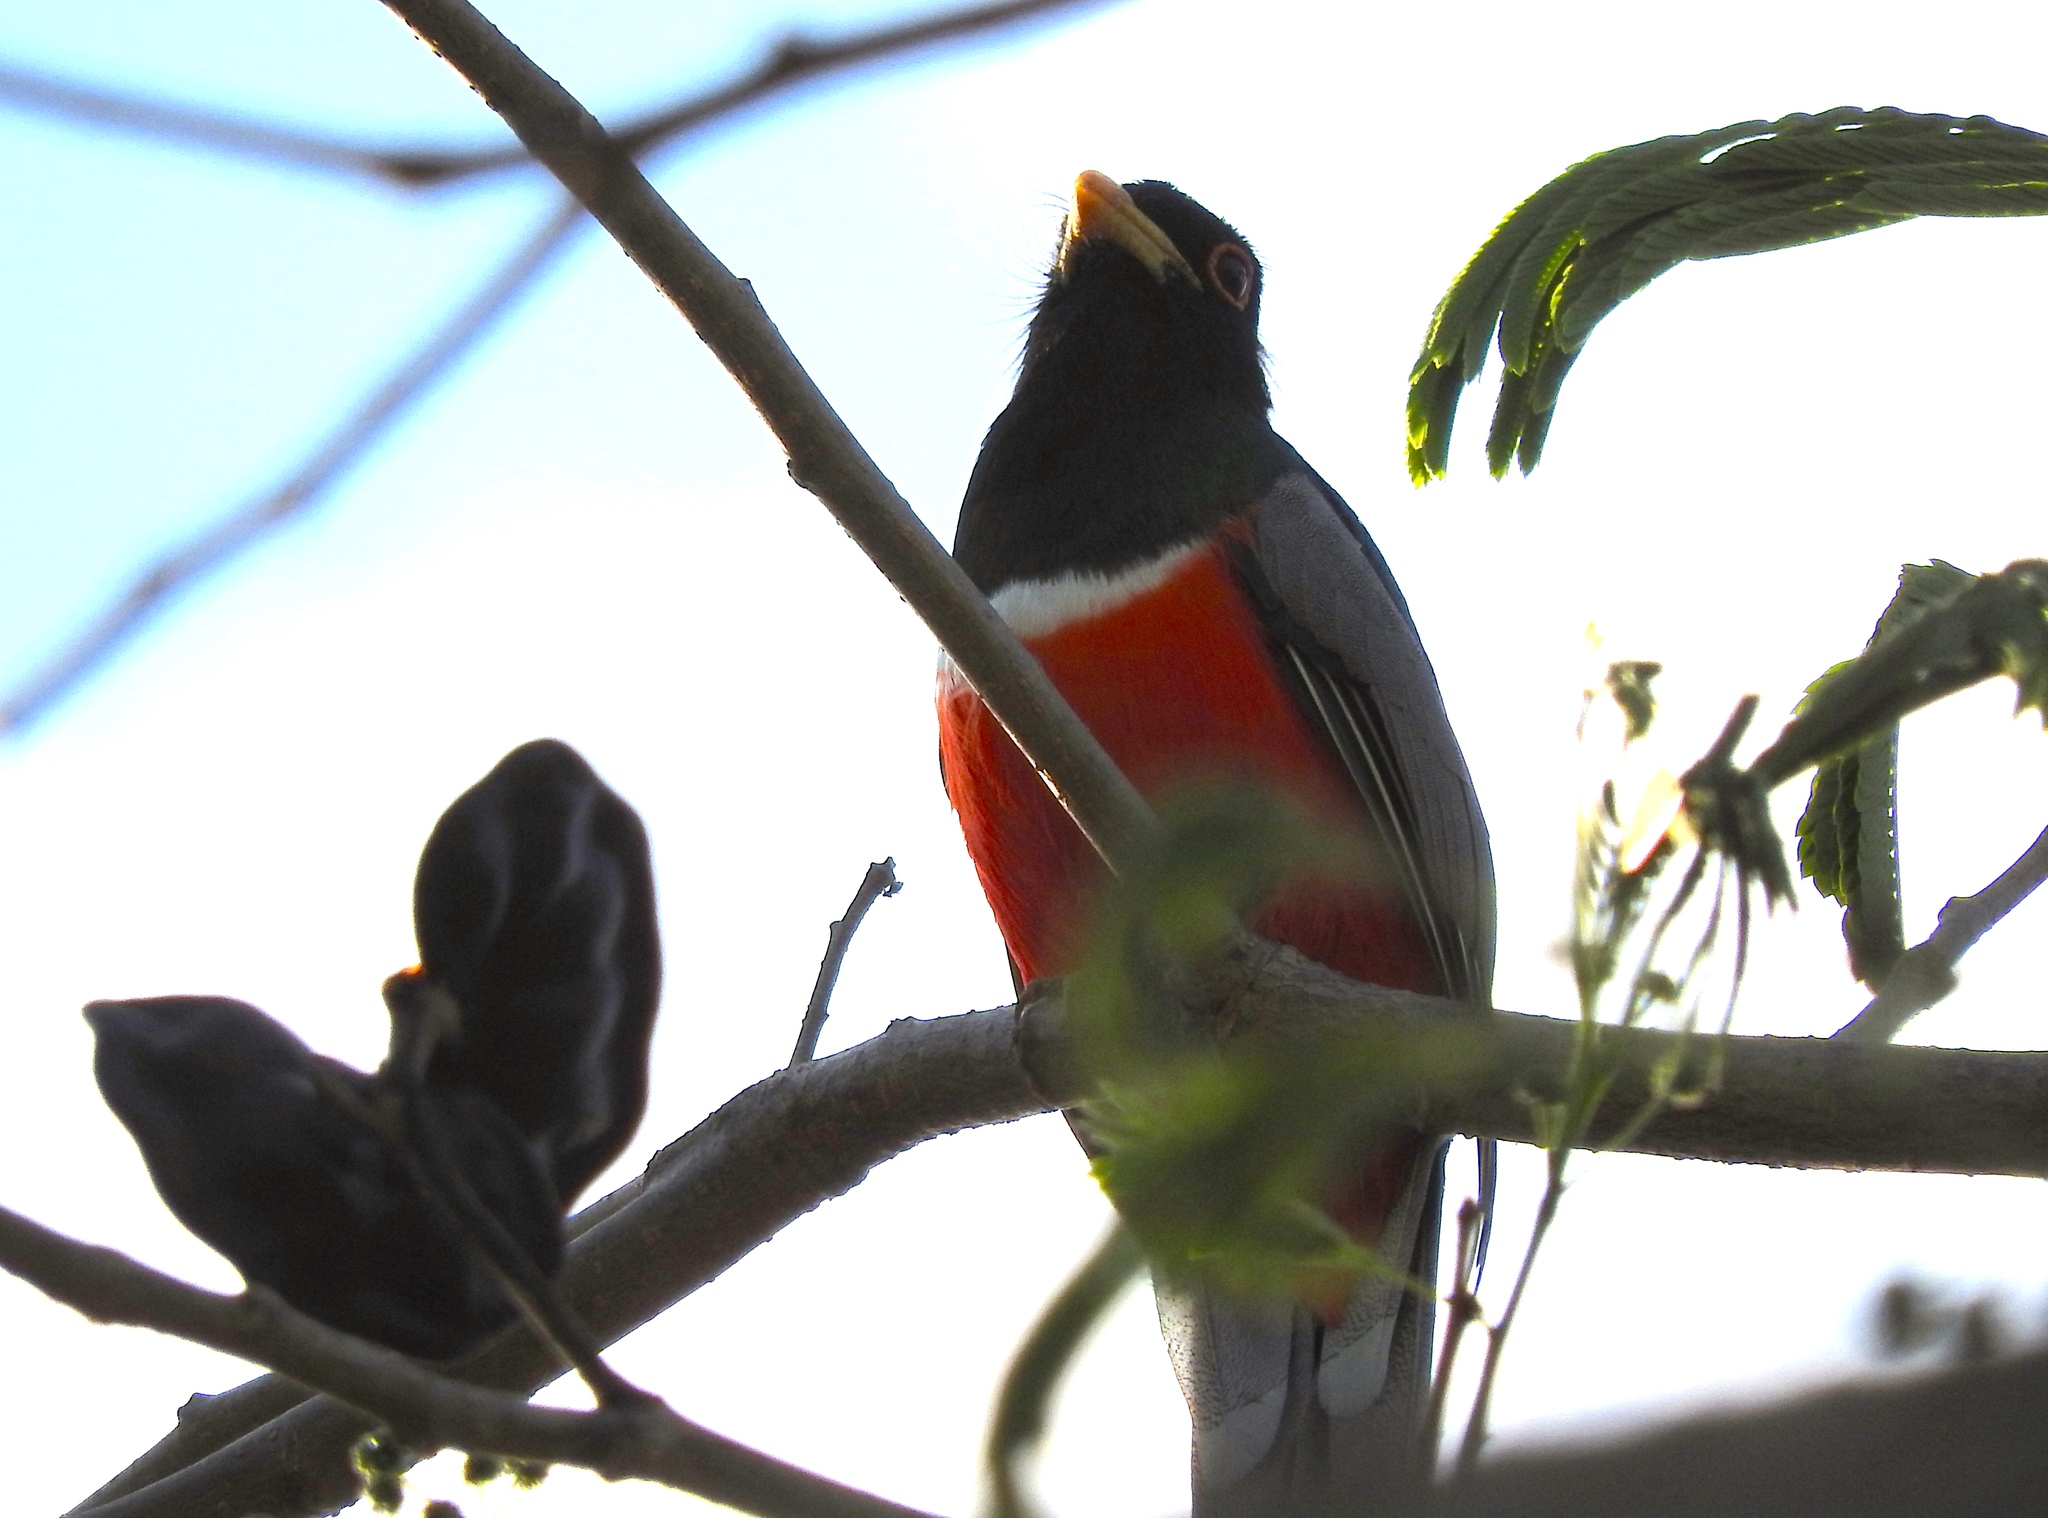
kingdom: Animalia
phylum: Chordata
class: Aves
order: Trogoniformes
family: Trogonidae
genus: Trogon
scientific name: Trogon elegans
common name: Elegant trogon
